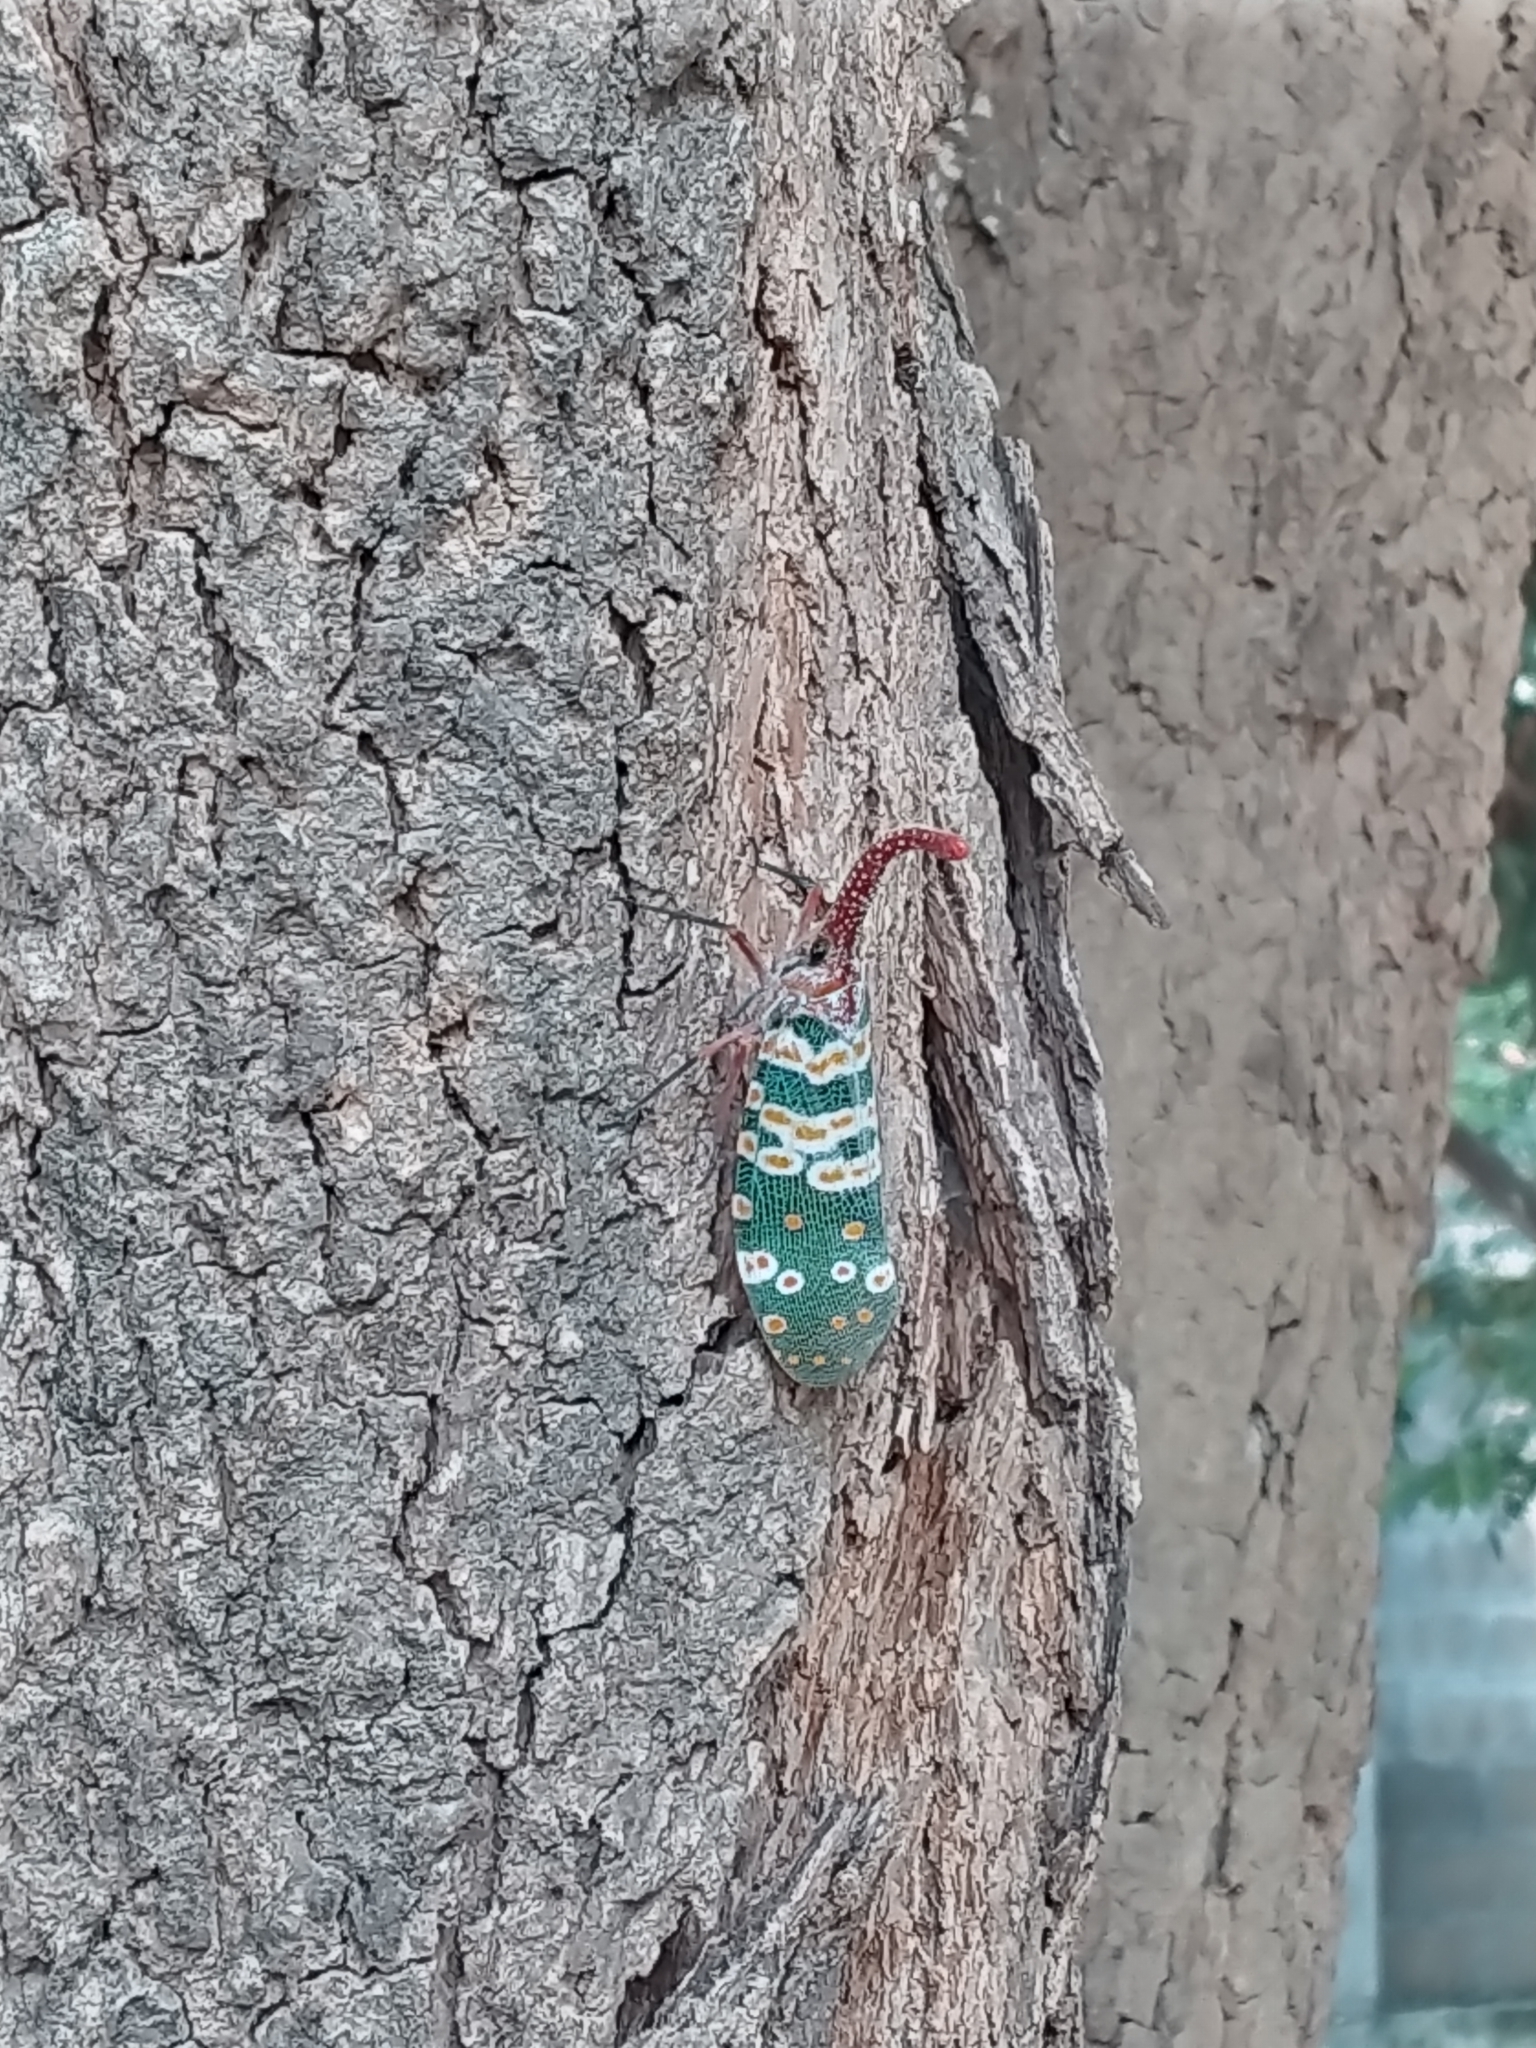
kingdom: Animalia
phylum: Arthropoda
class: Insecta
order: Hemiptera
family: Fulgoridae
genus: Pyrops
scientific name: Pyrops candelaria
